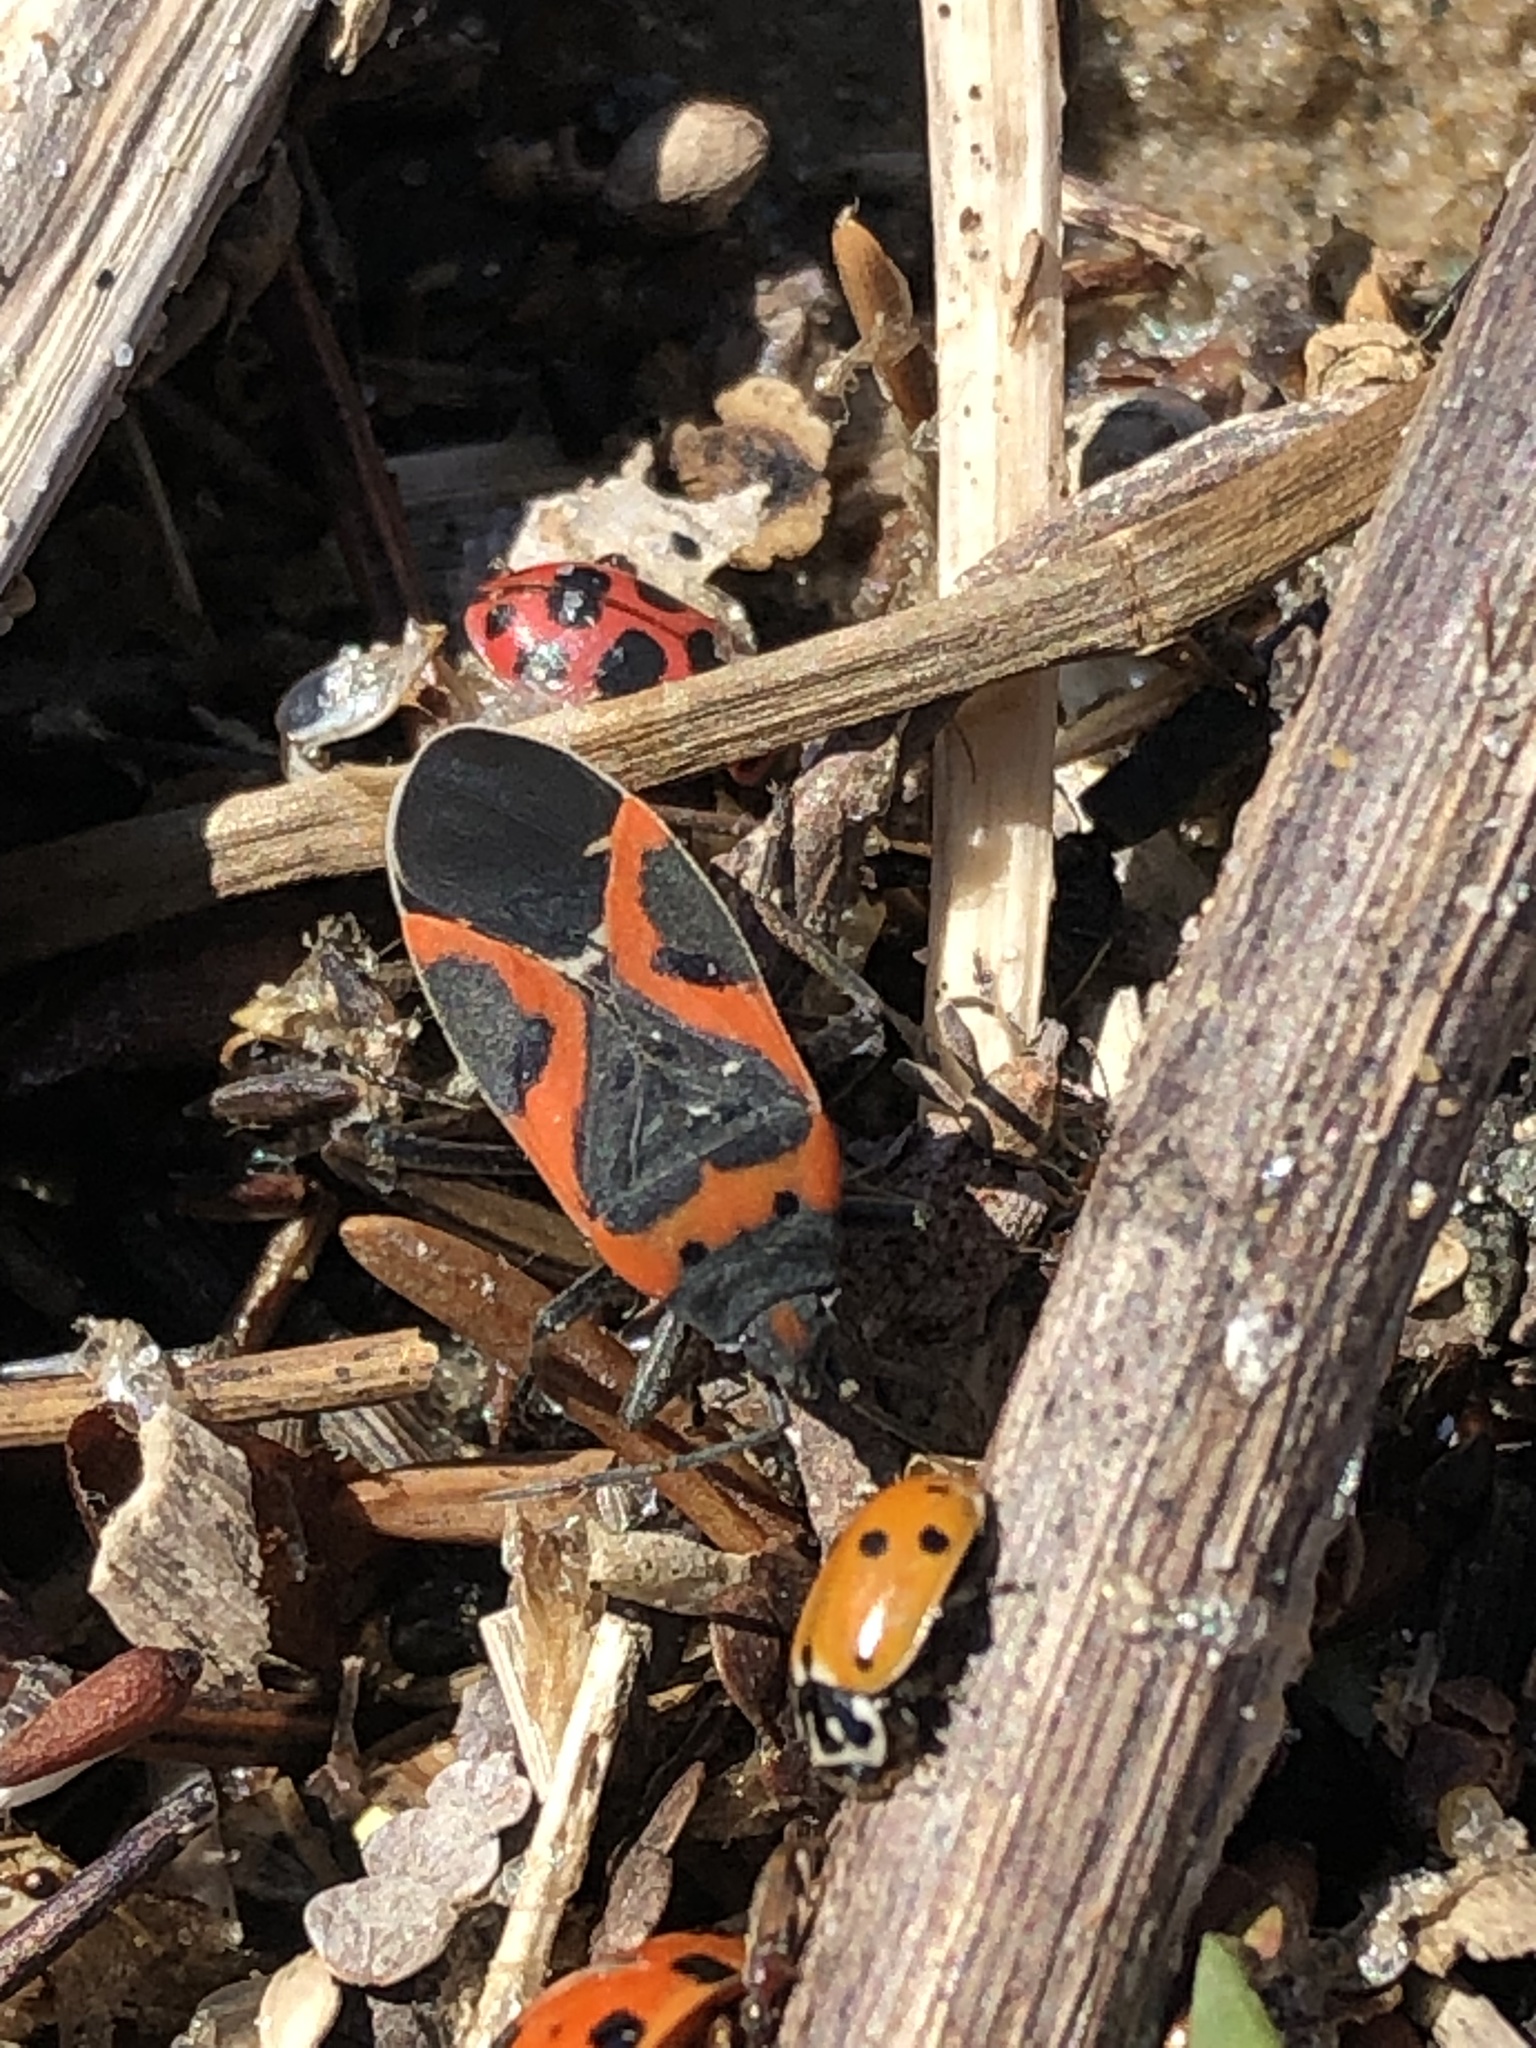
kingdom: Animalia
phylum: Arthropoda
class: Insecta
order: Hemiptera
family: Lygaeidae
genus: Lygaeus
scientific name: Lygaeus kalmii
